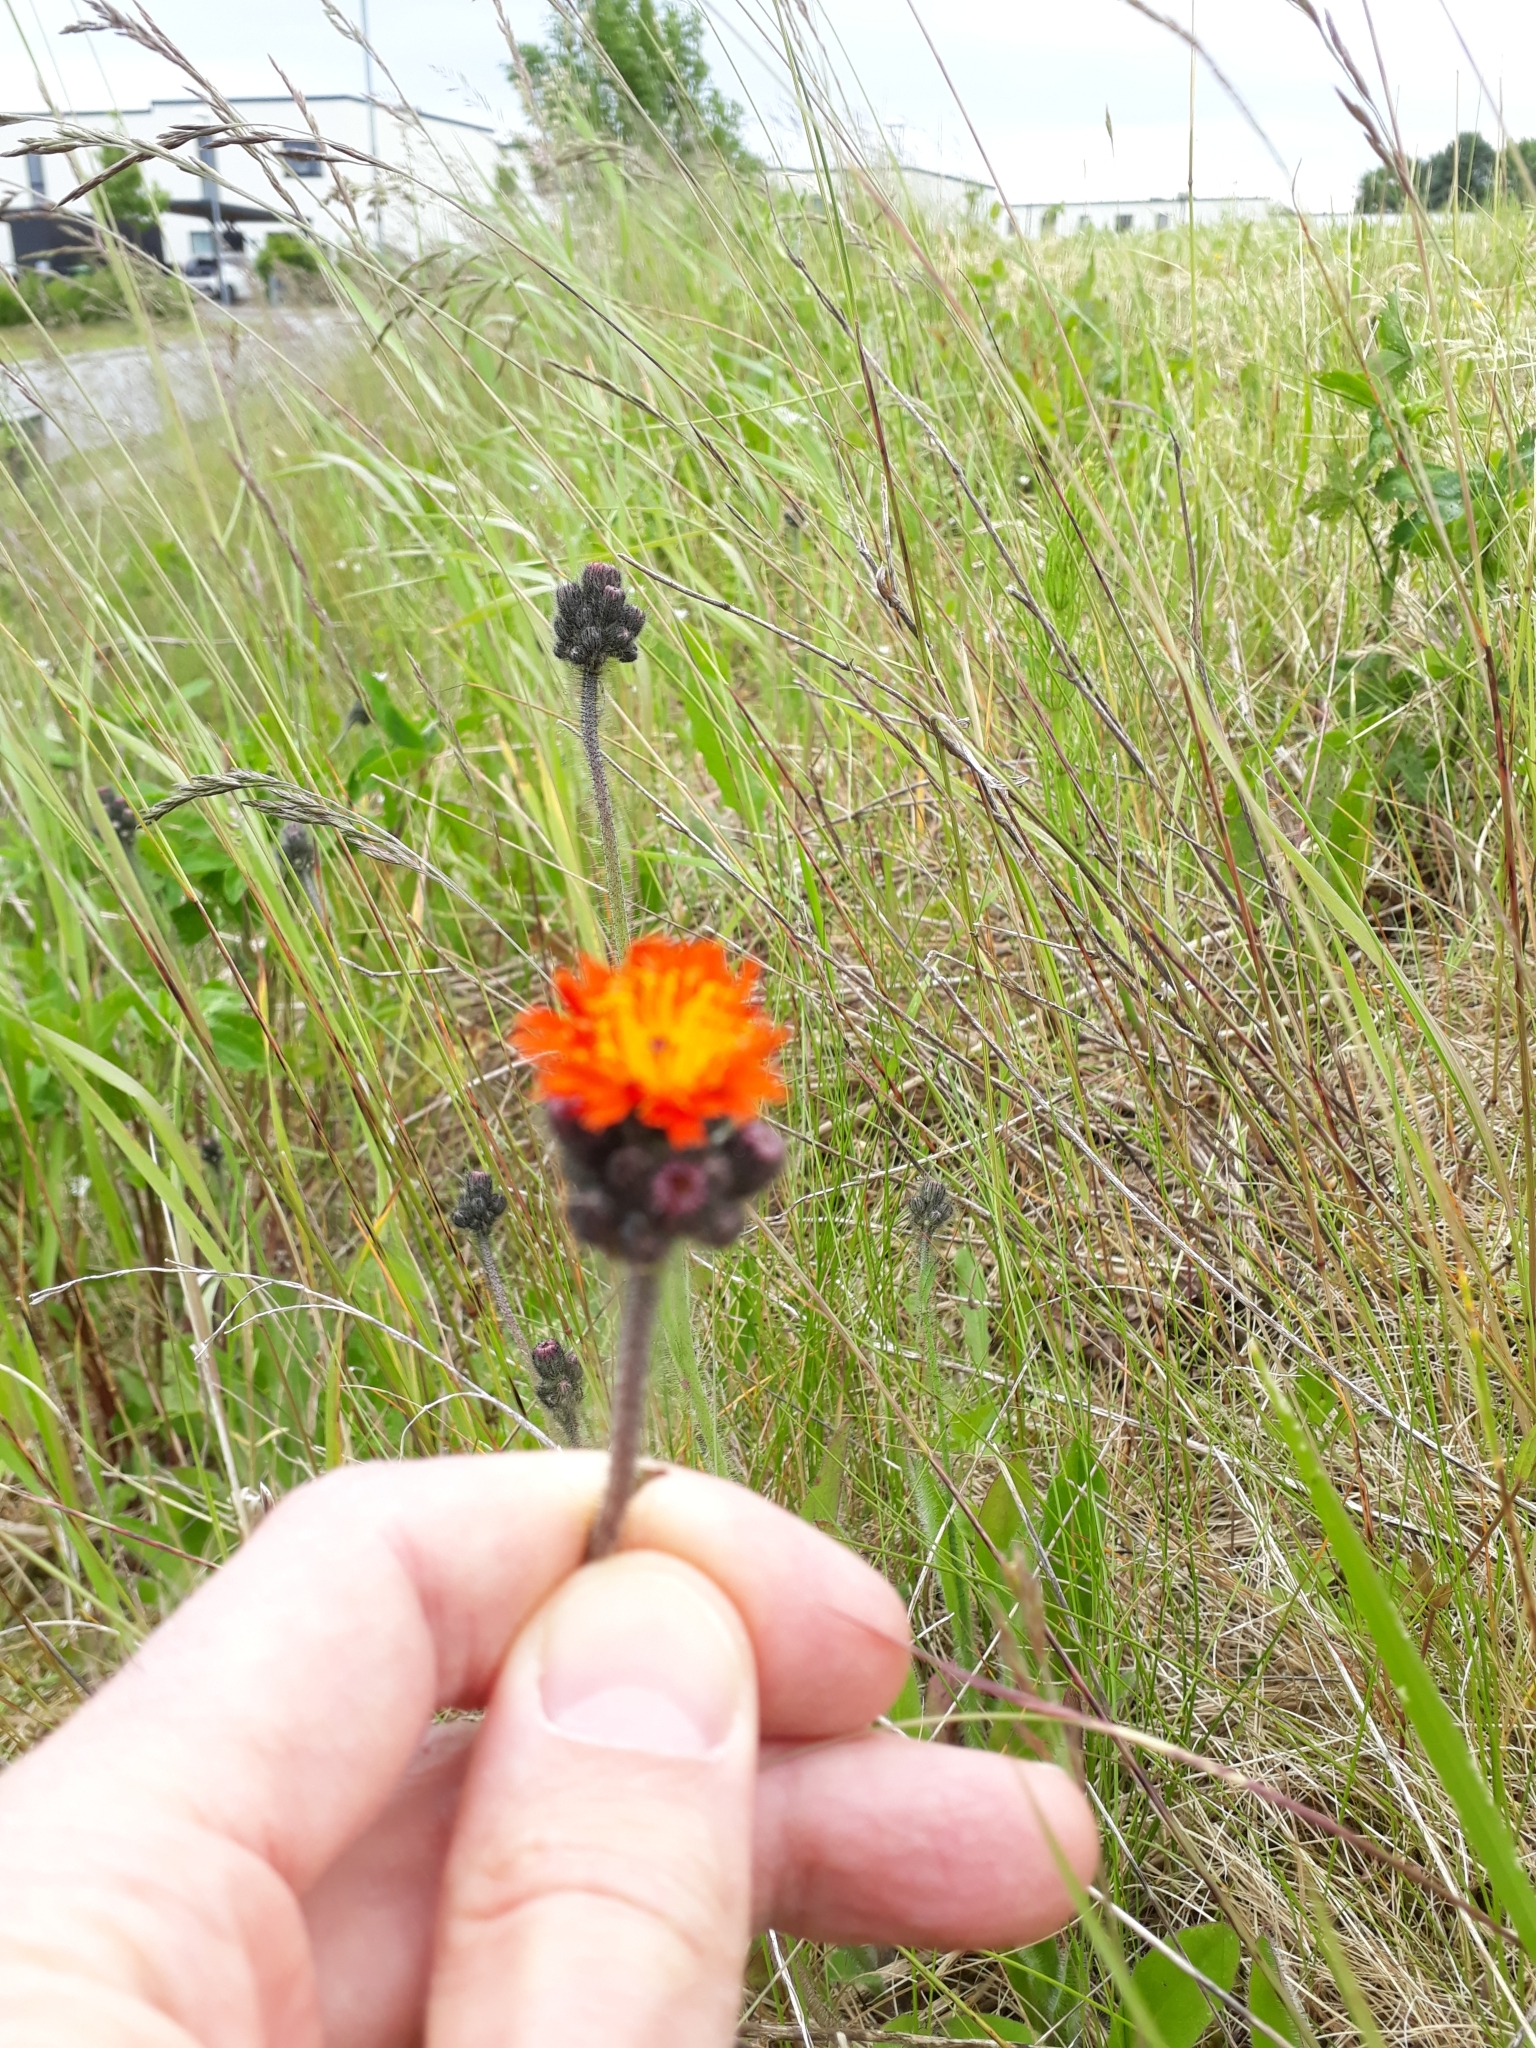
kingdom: Plantae
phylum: Tracheophyta
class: Magnoliopsida
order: Asterales
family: Asteraceae
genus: Pilosella
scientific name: Pilosella aurantiaca
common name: Fox-and-cubs
